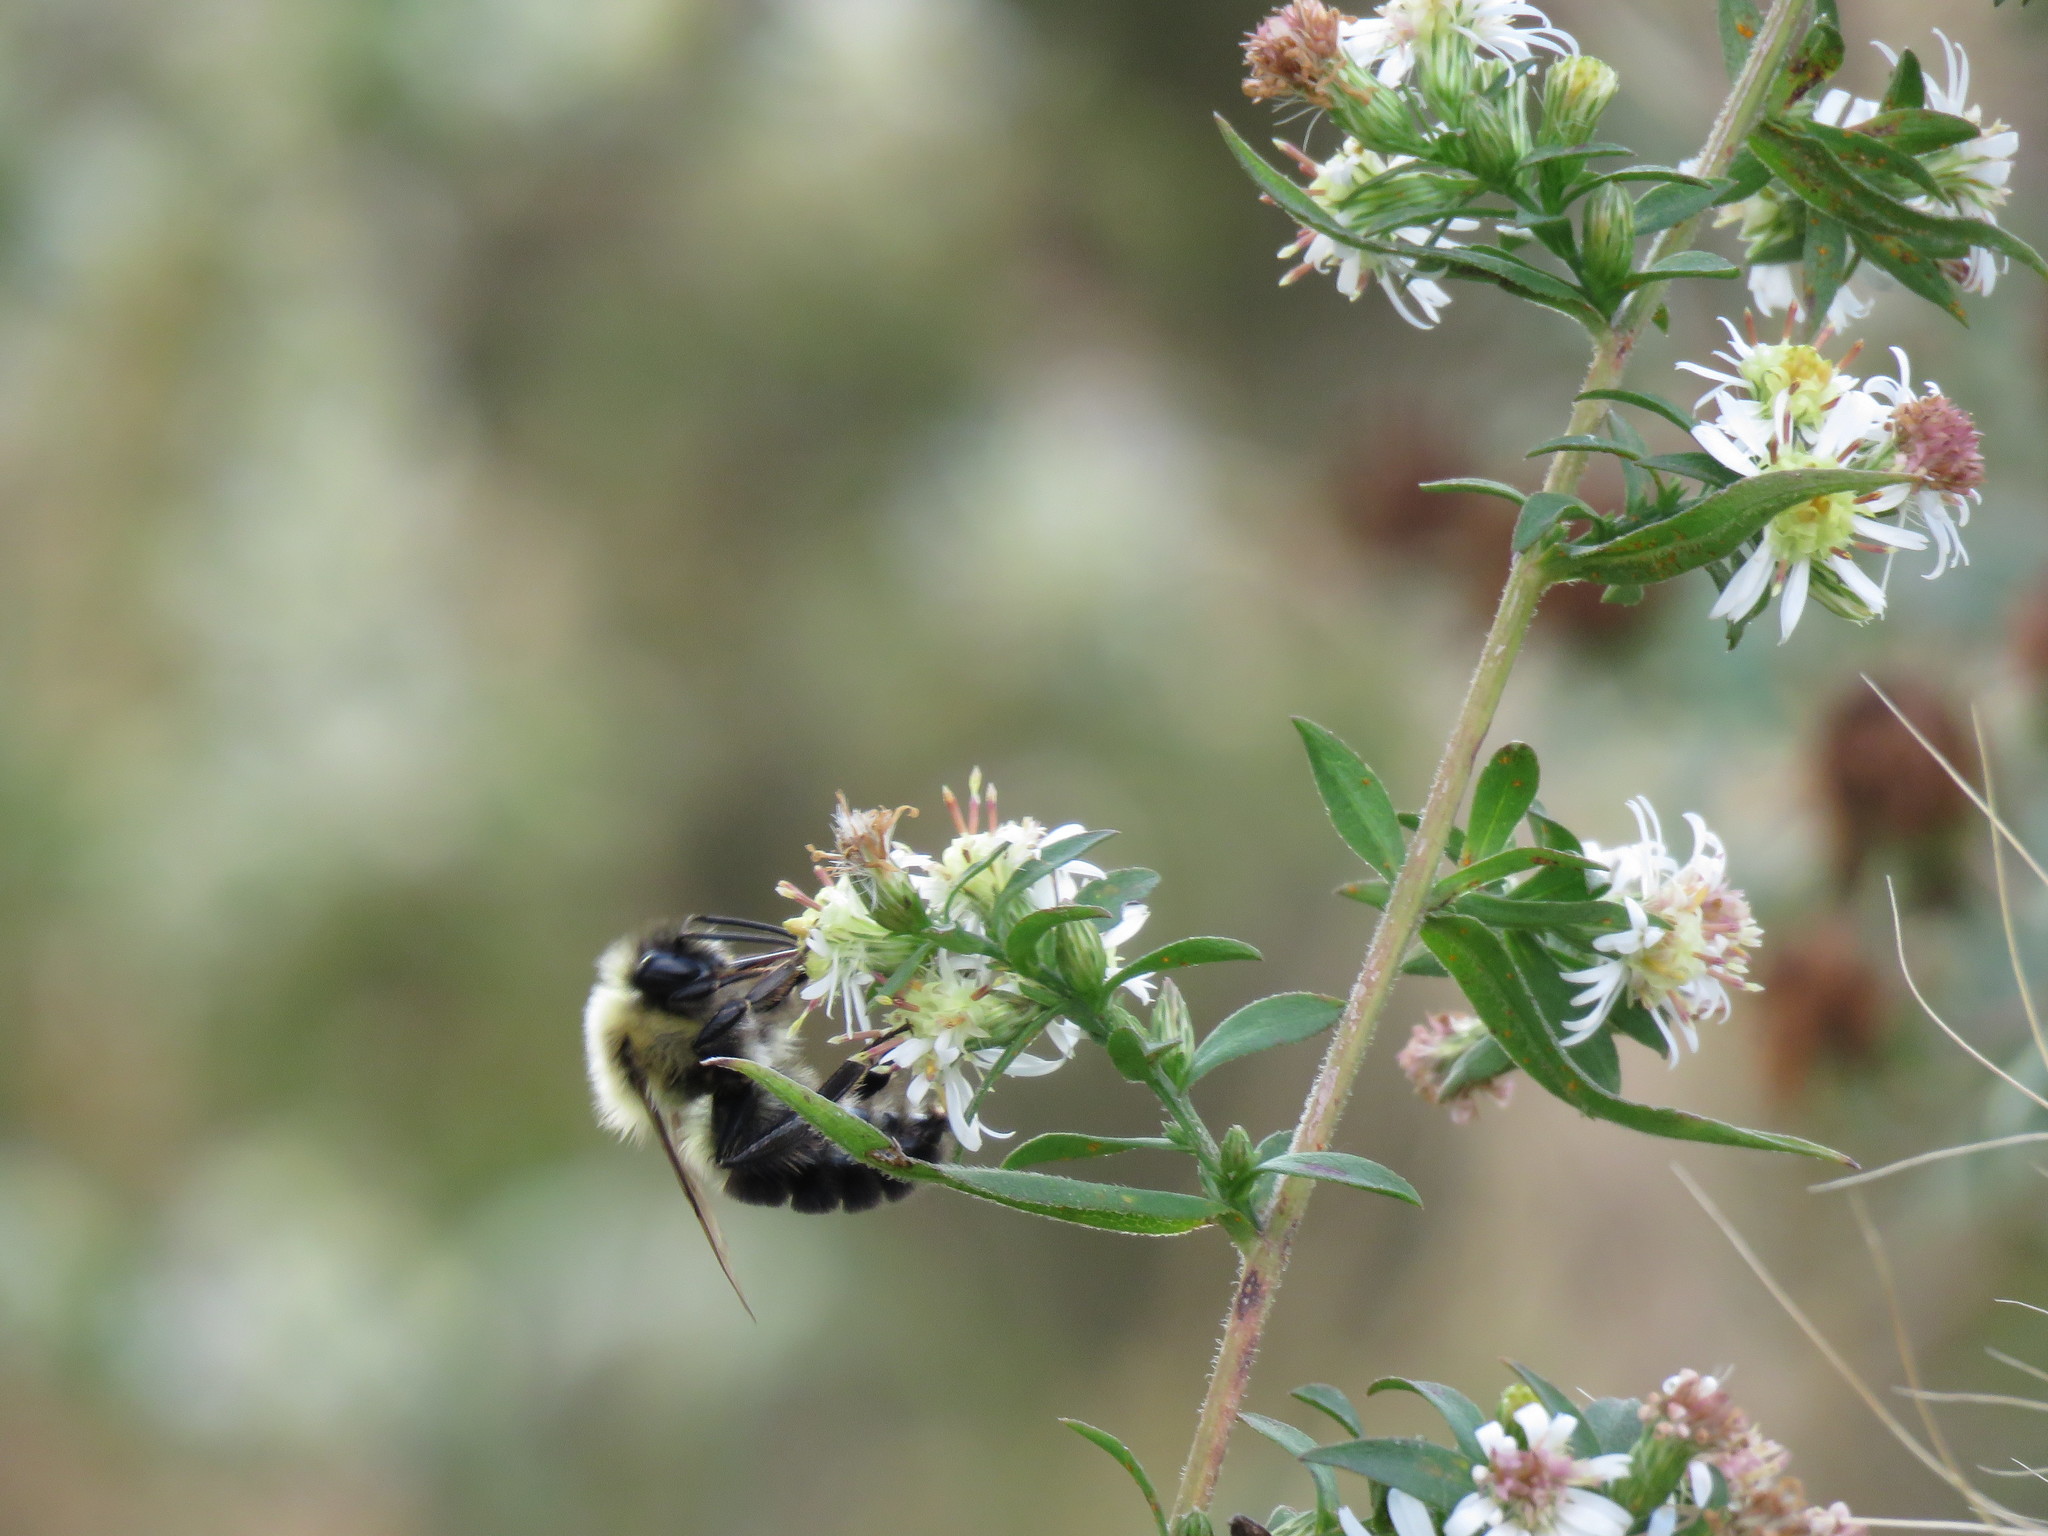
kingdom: Animalia
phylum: Arthropoda
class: Insecta
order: Hymenoptera
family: Apidae
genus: Bombus
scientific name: Bombus impatiens
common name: Common eastern bumble bee
